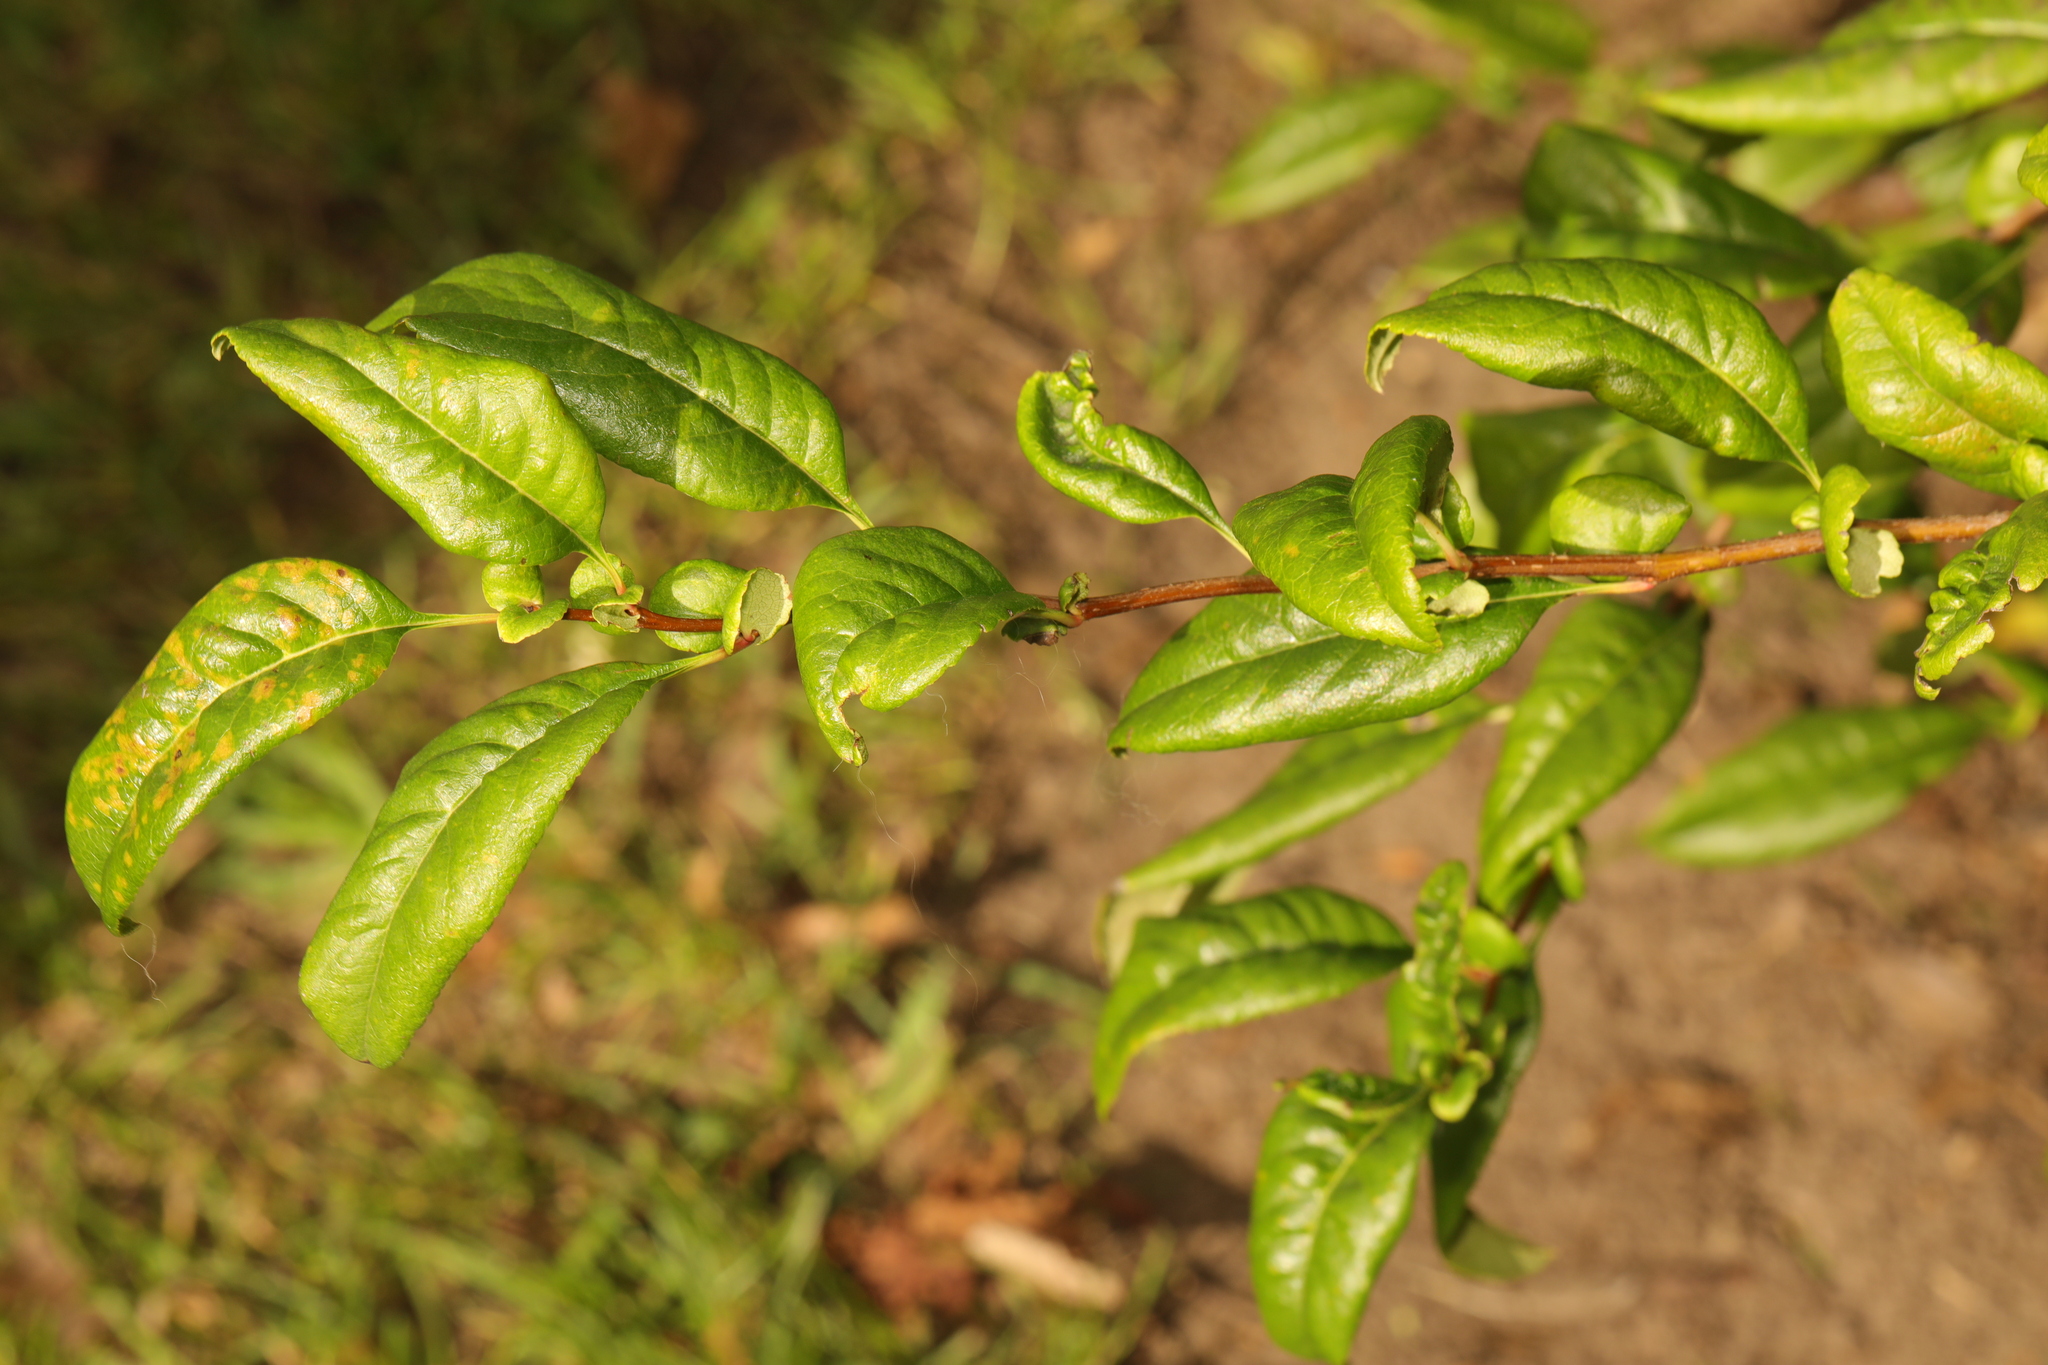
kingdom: Plantae
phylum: Tracheophyta
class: Magnoliopsida
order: Rosales
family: Rosaceae
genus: Chaenomeles
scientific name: Chaenomeles speciosa
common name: Japanese quince
